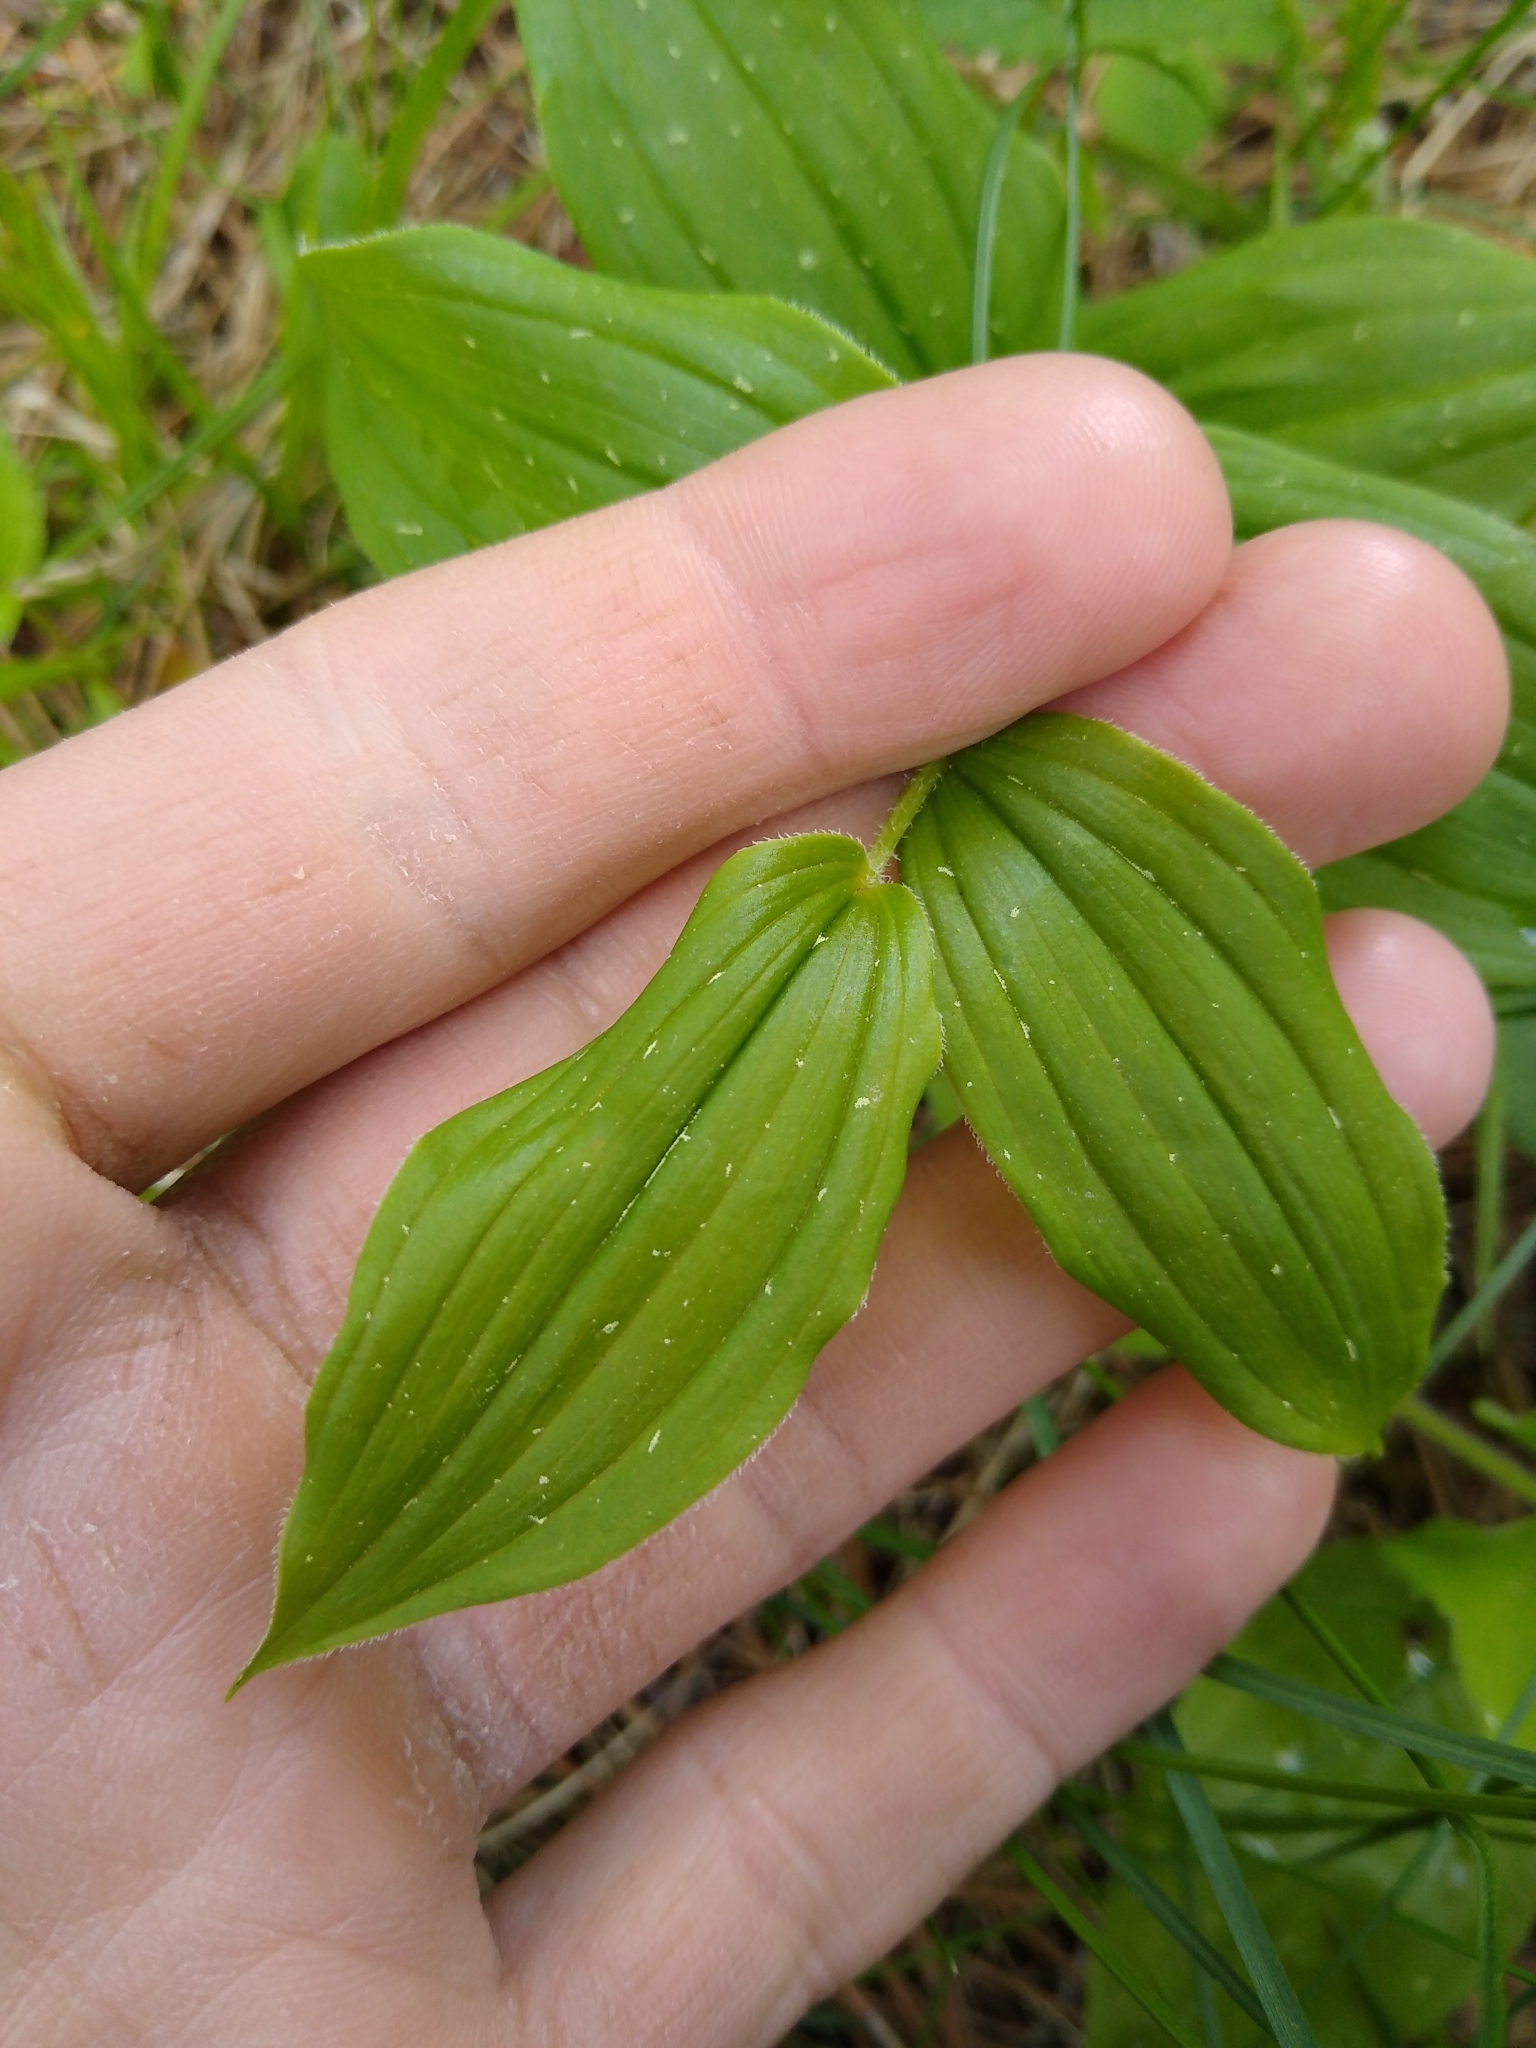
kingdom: Plantae
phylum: Tracheophyta
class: Liliopsida
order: Liliales
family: Liliaceae
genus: Streptopus
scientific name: Streptopus lanceolatus
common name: Rose mandarin
